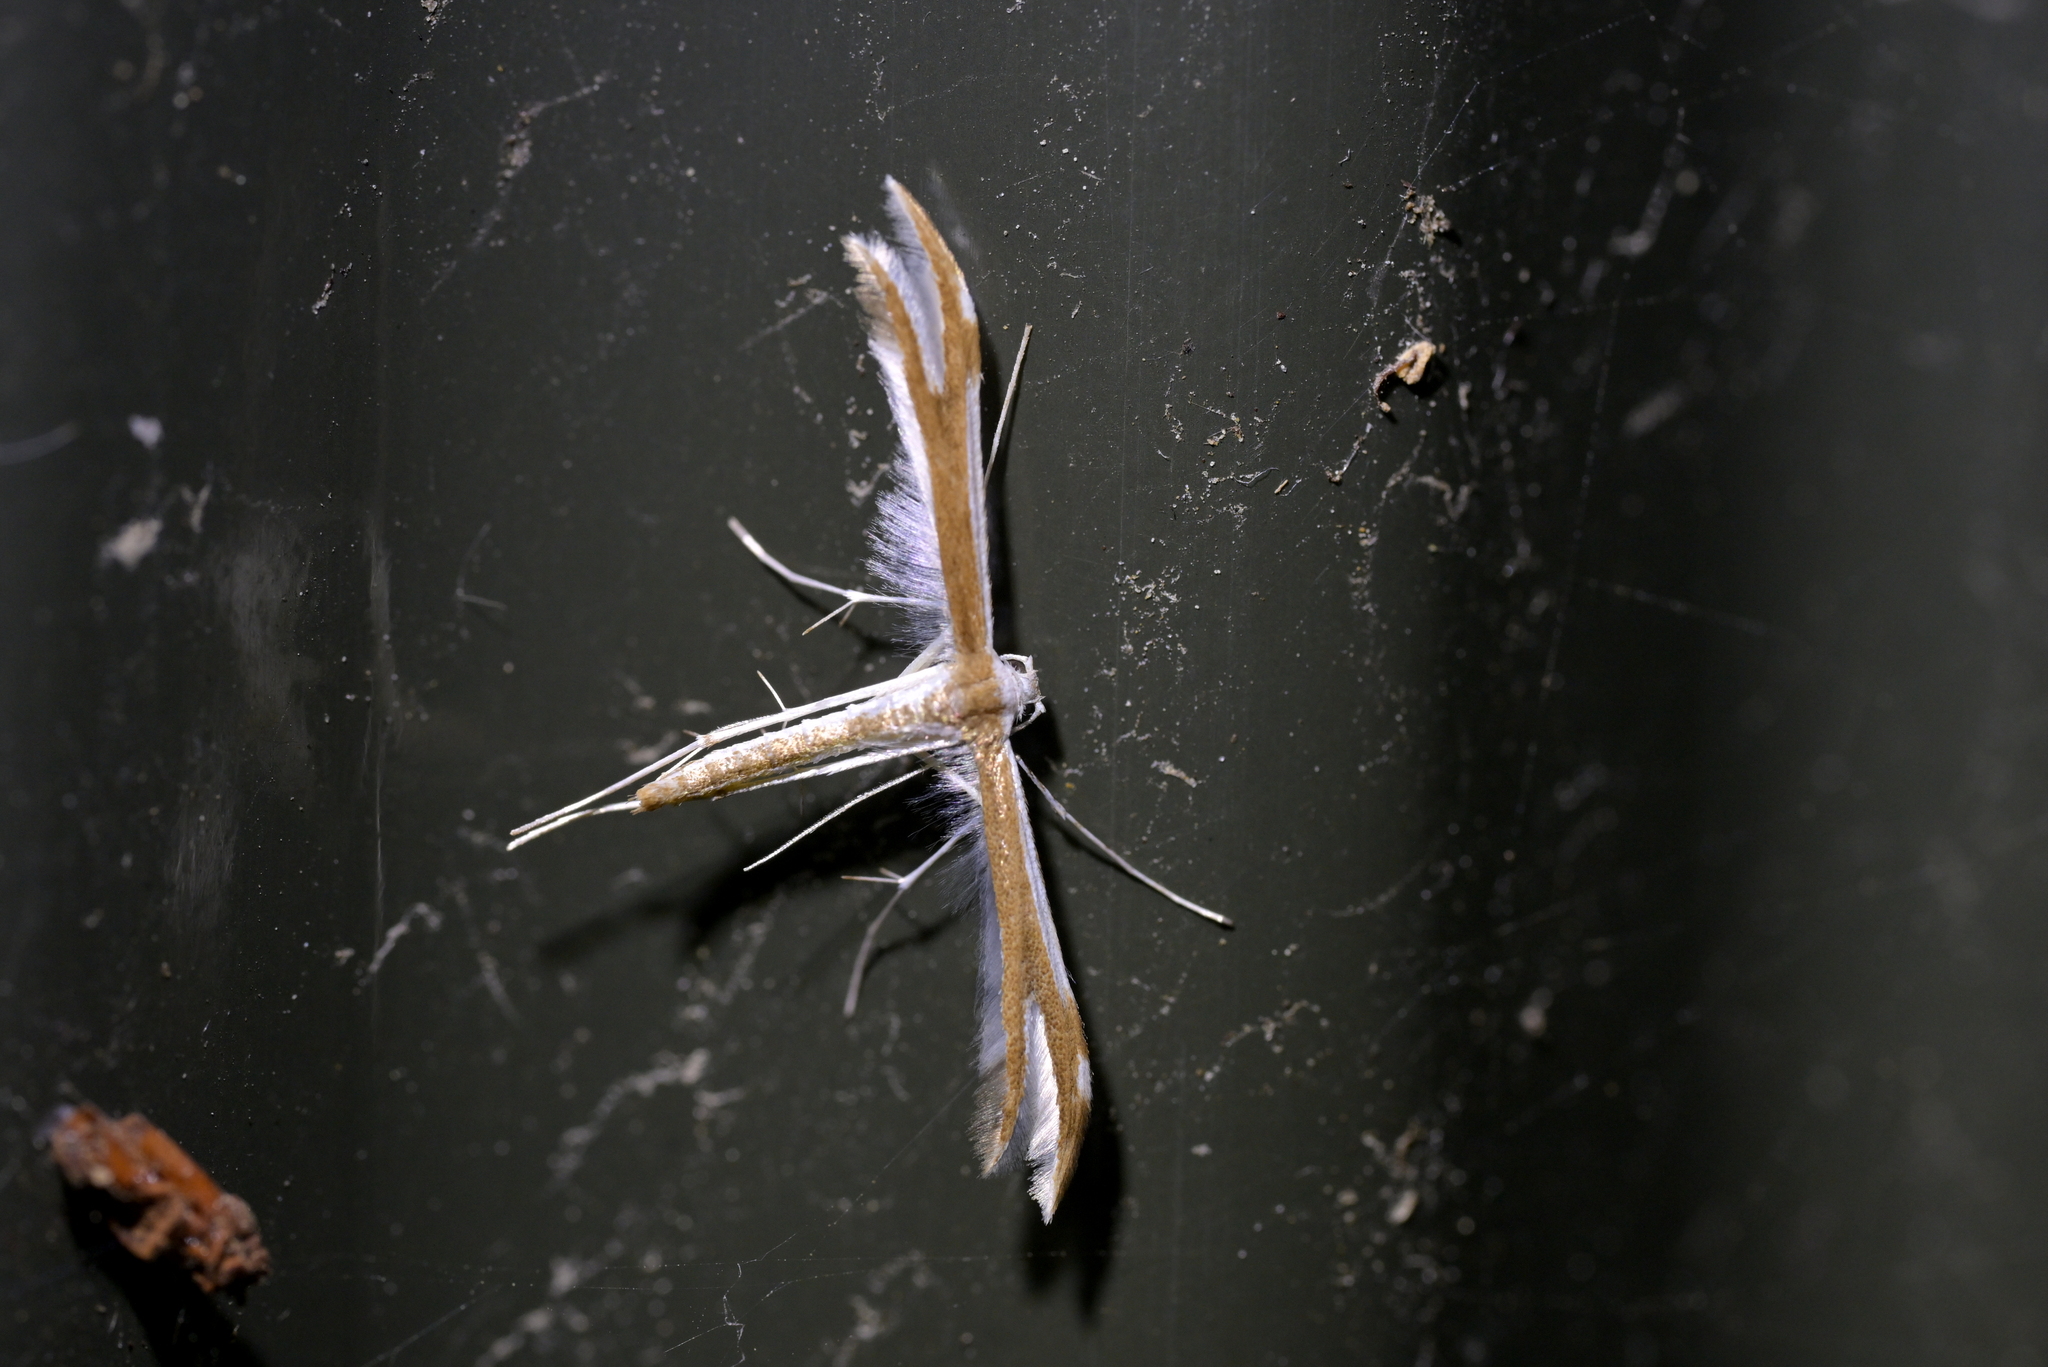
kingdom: Animalia
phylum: Arthropoda
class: Insecta
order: Lepidoptera
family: Pterophoridae
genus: Pterophorus
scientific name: Pterophorus furcatalis
